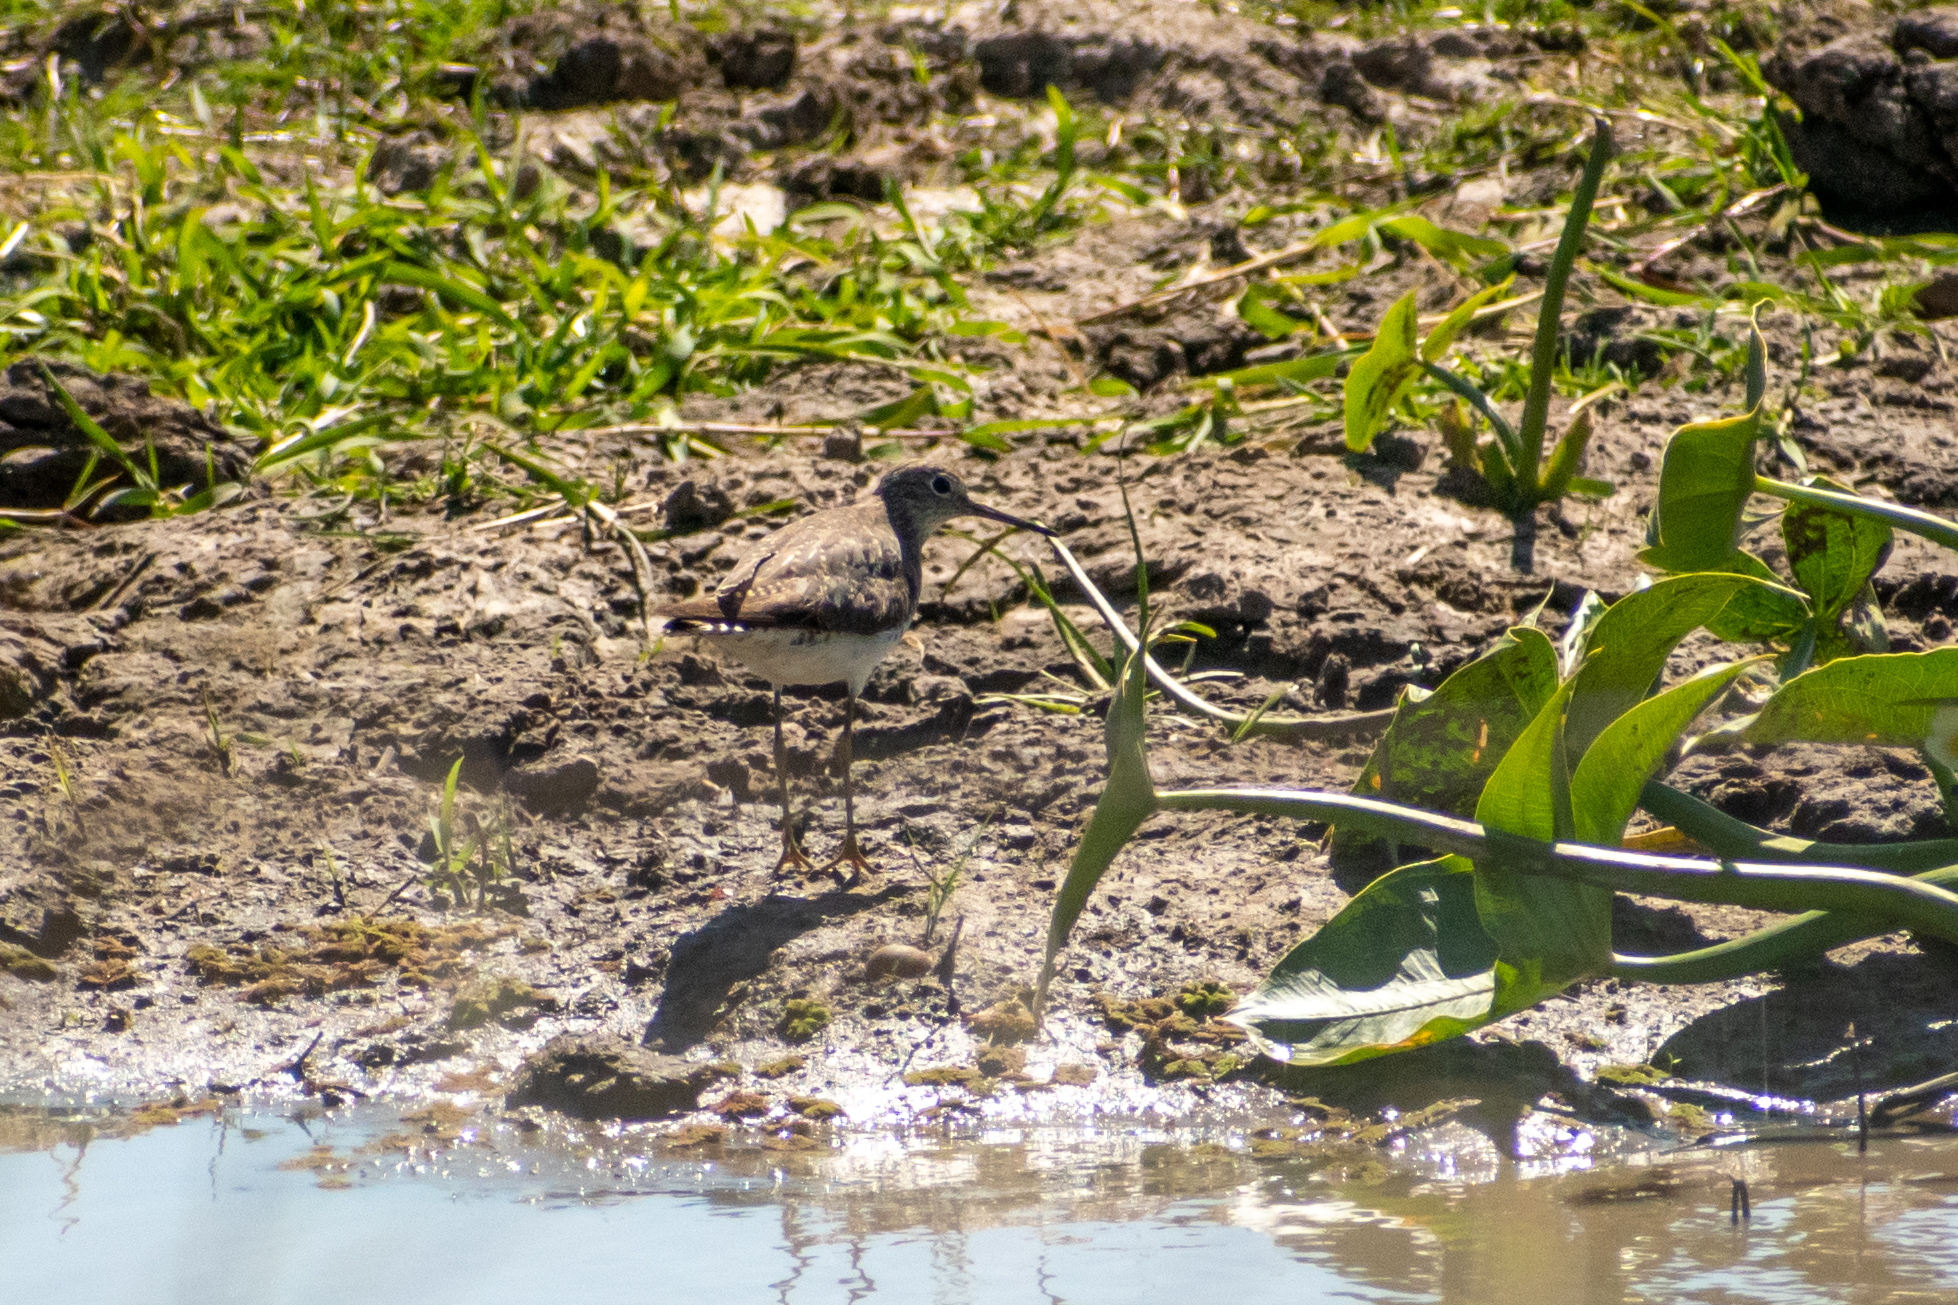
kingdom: Animalia
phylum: Chordata
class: Aves
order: Charadriiformes
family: Scolopacidae
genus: Tringa
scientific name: Tringa solitaria
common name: Solitary sandpiper
